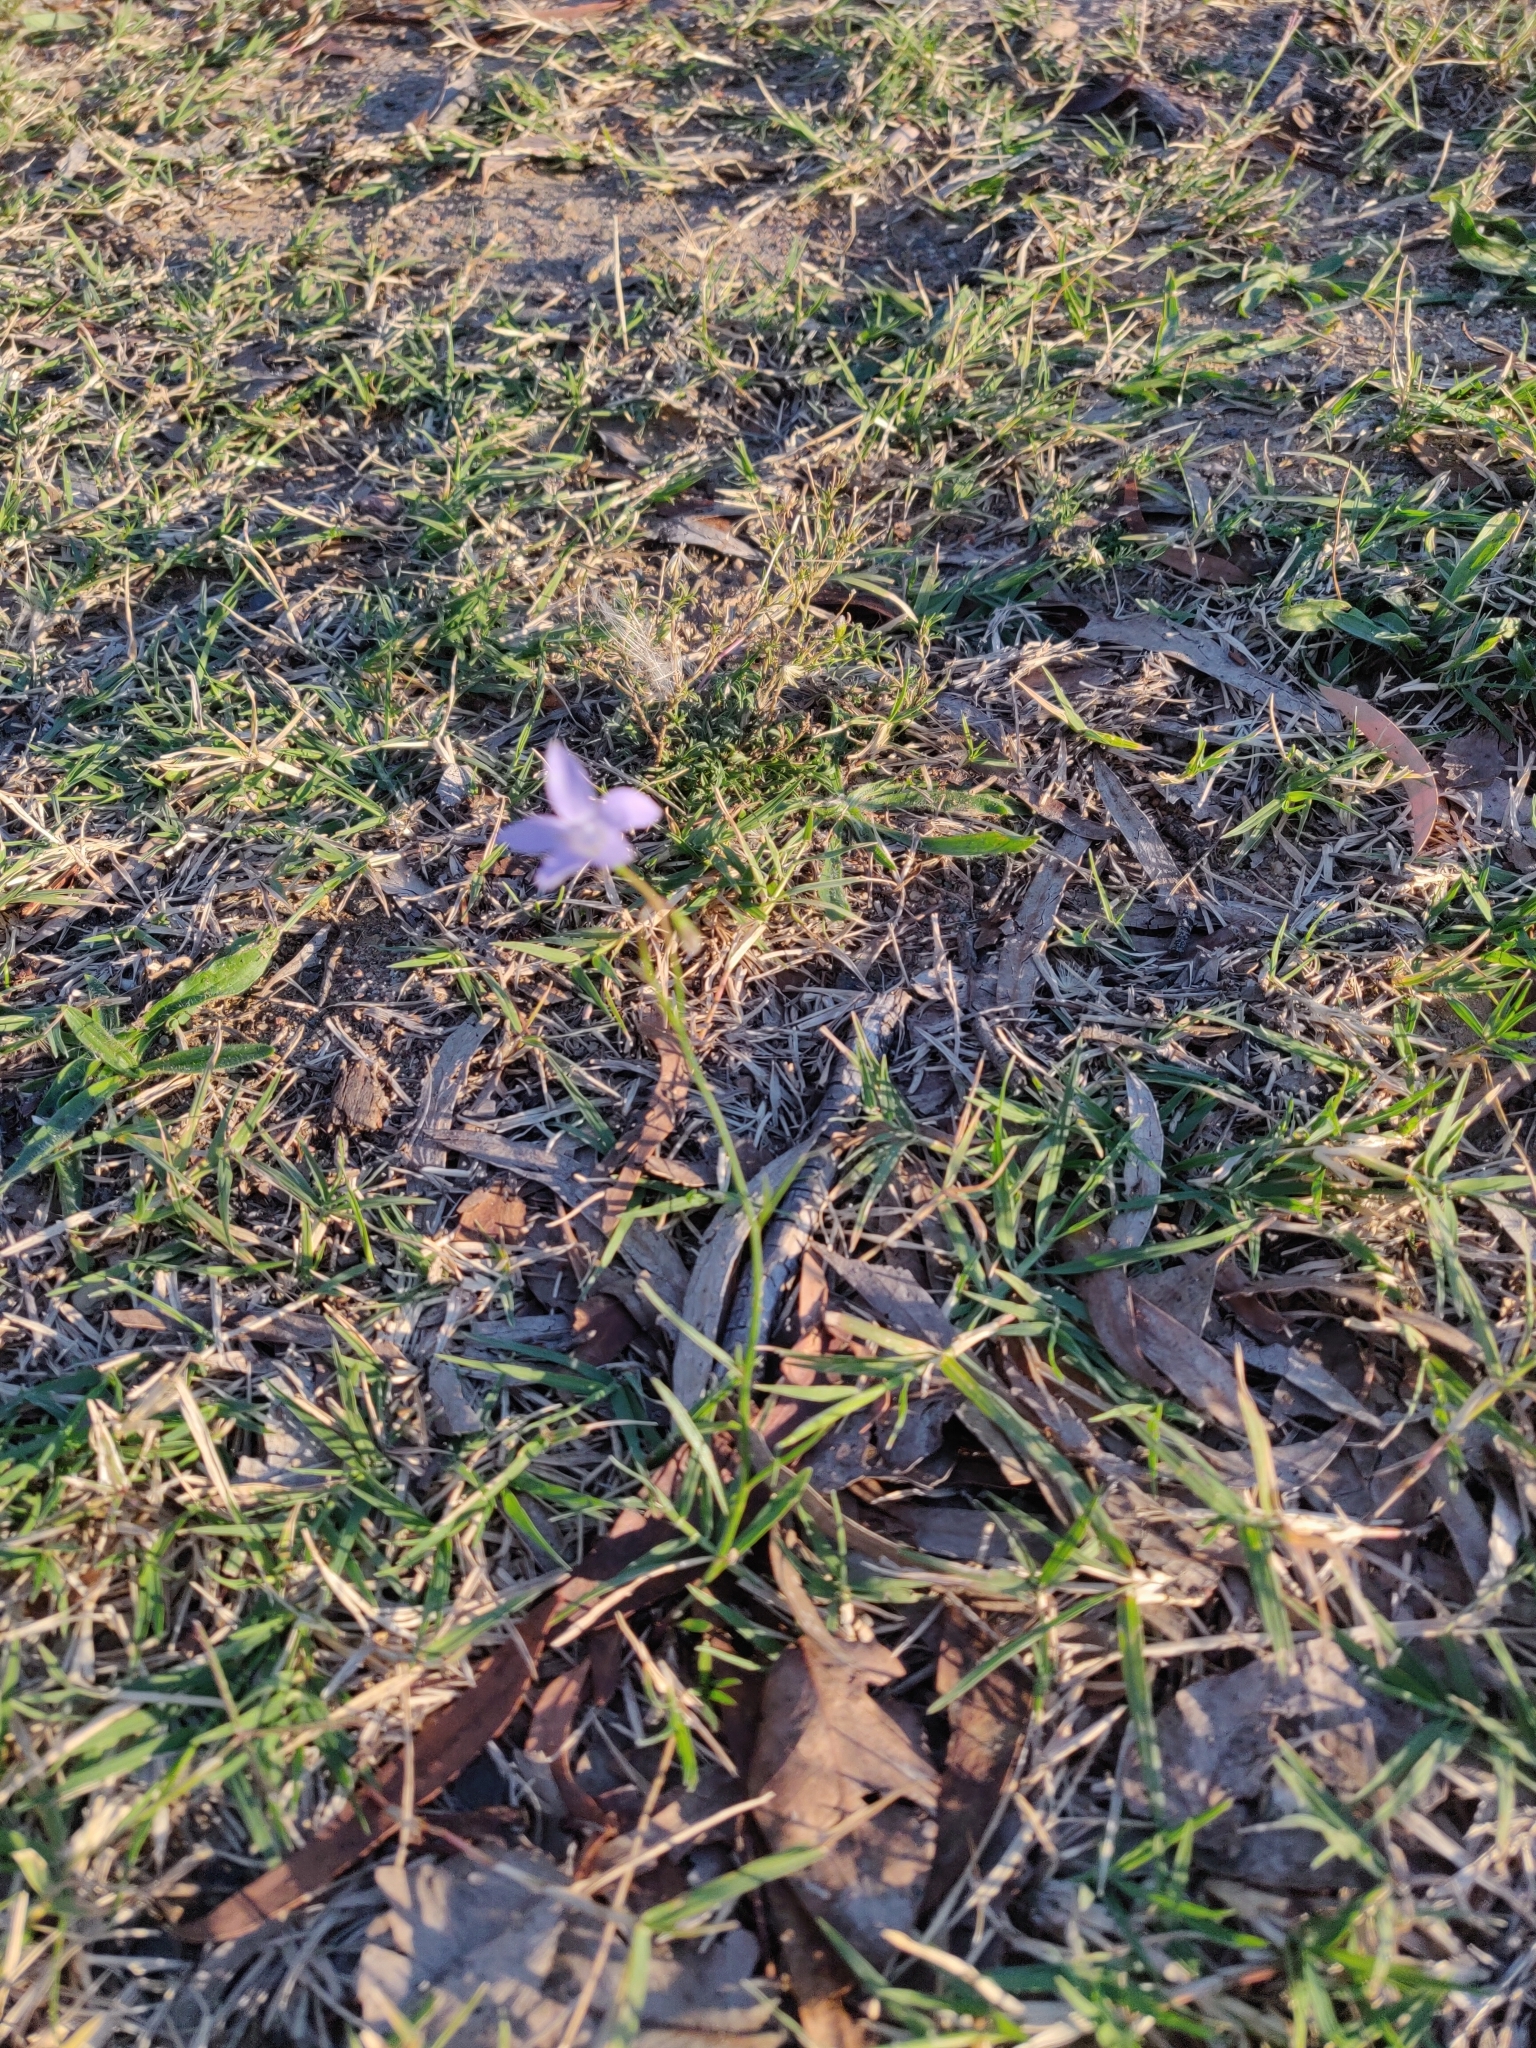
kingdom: Plantae
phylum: Tracheophyta
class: Magnoliopsida
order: Asterales
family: Campanulaceae
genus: Wahlenbergia
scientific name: Wahlenbergia capillaris
